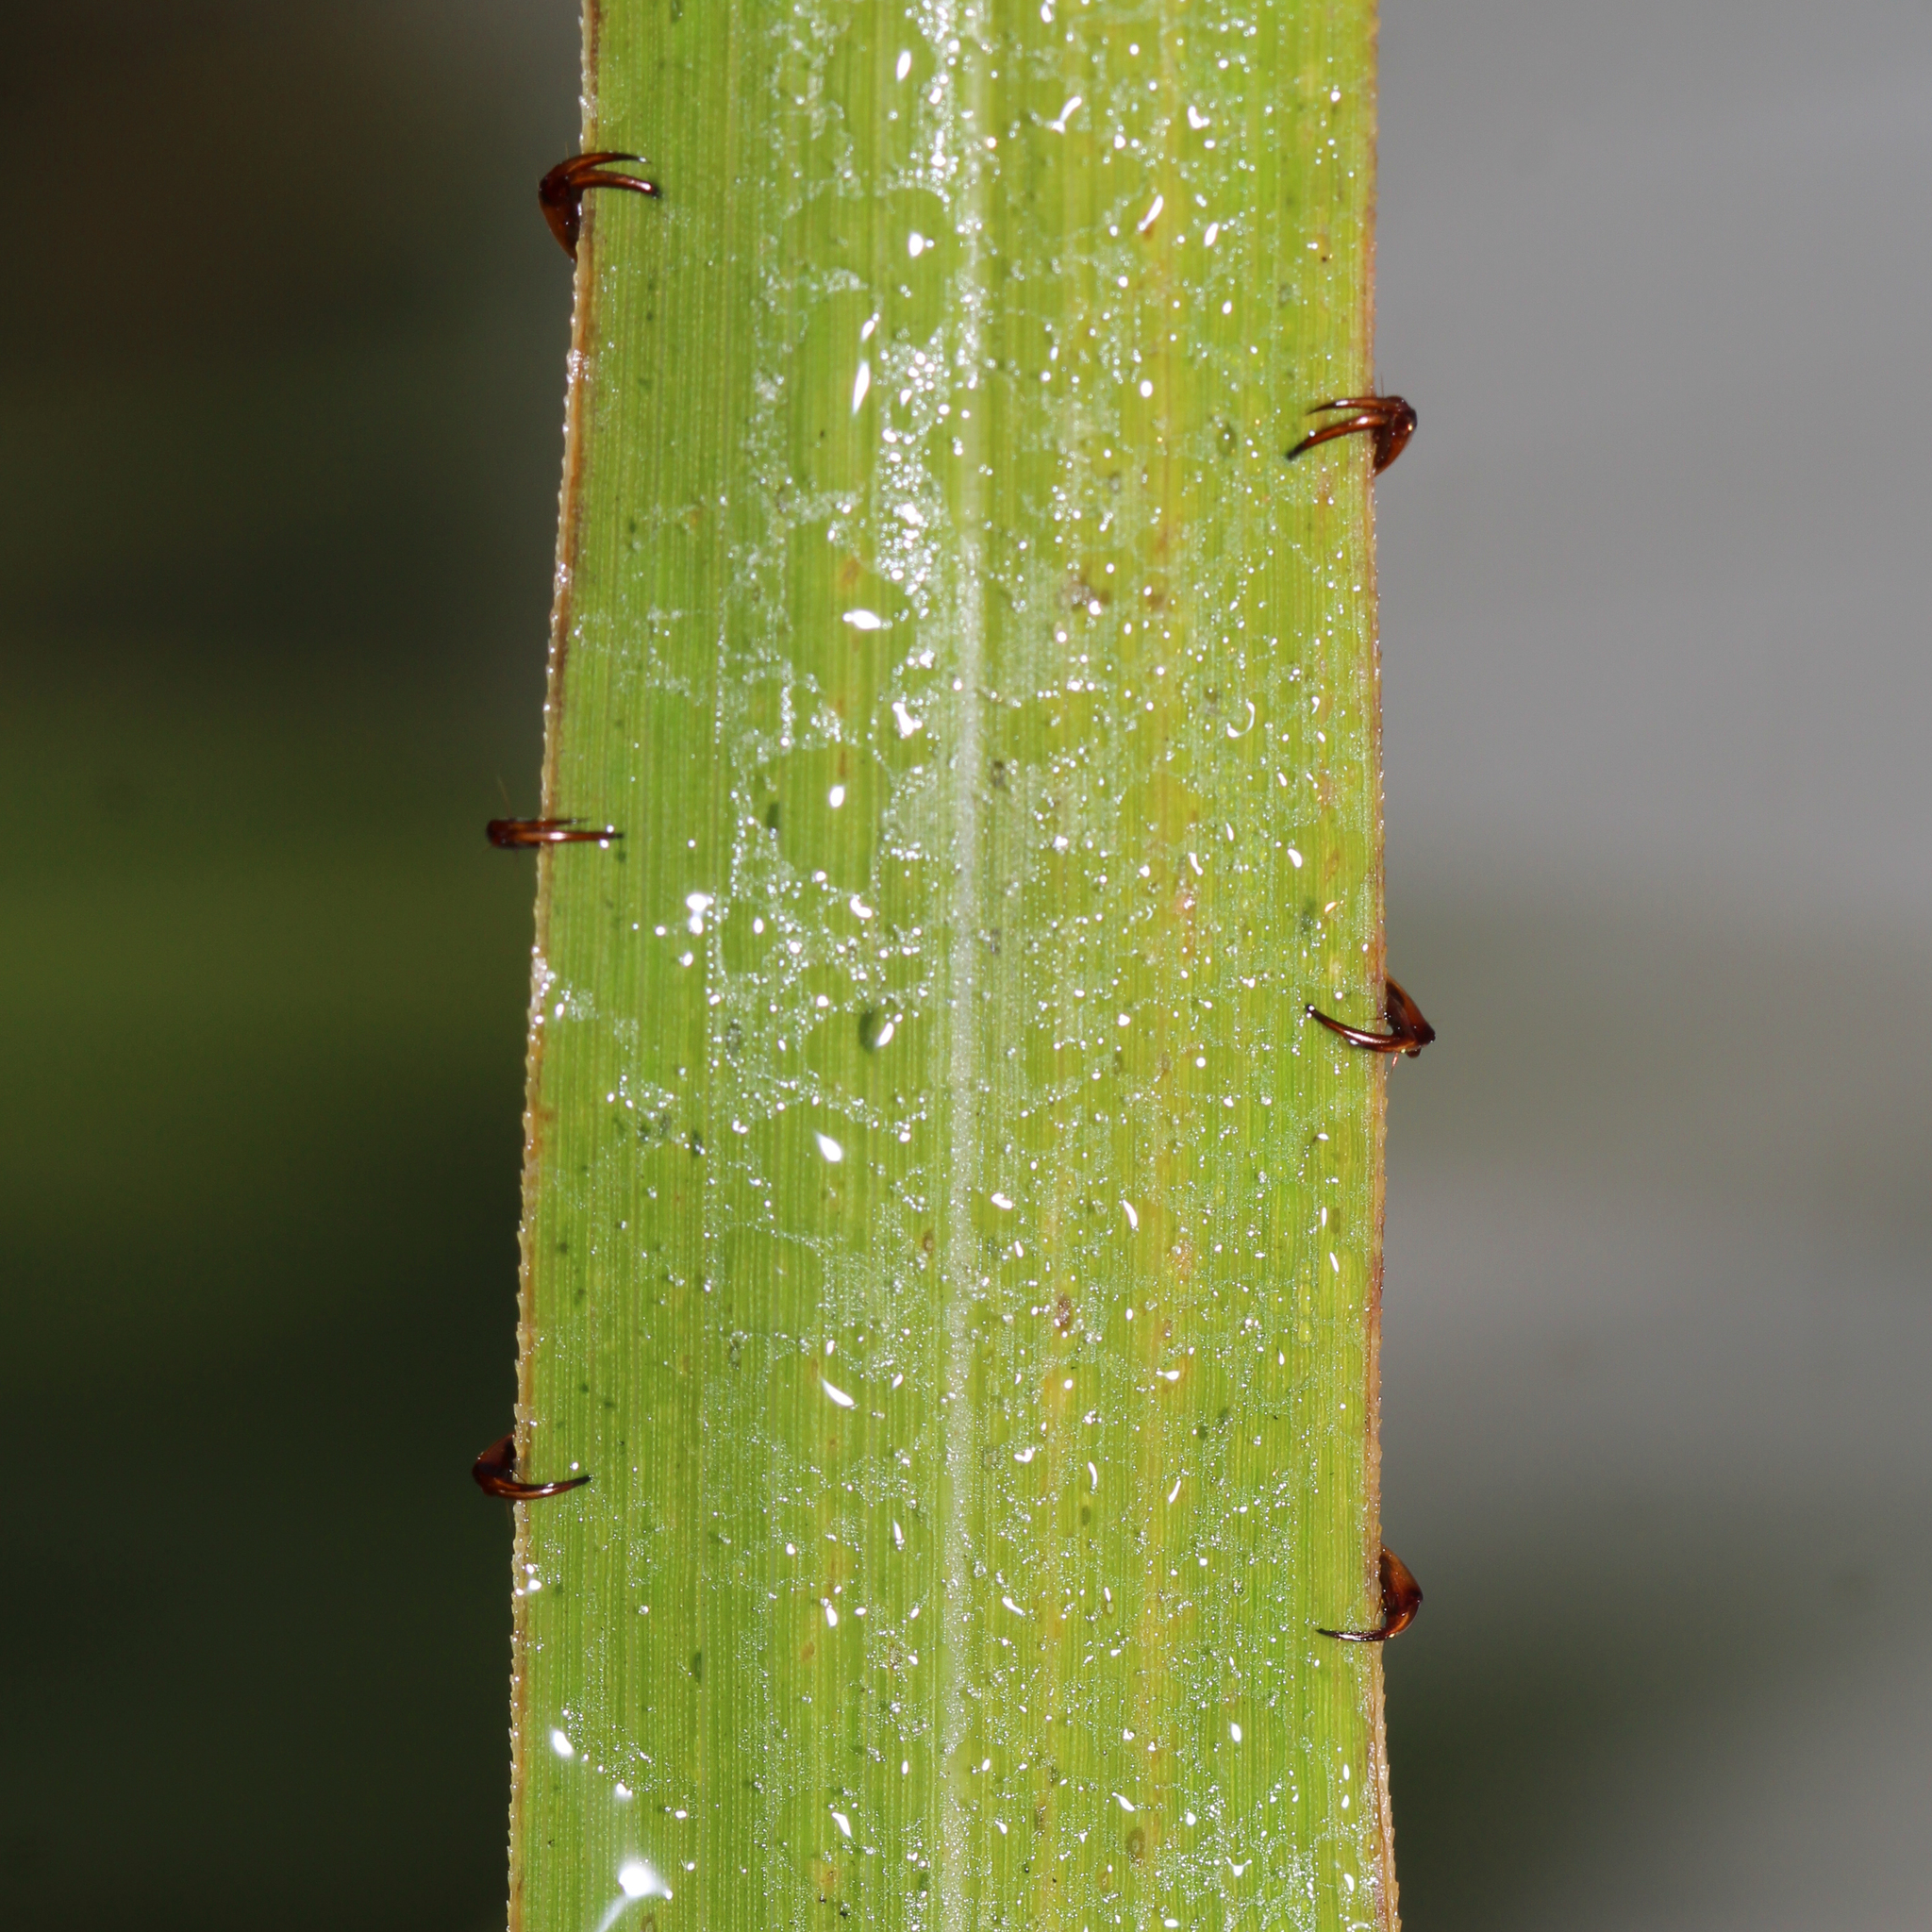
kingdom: Animalia
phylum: Arthropoda
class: Insecta
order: Coleoptera
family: Scarabaeidae
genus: Pelidnota
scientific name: Pelidnota punctata
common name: Grapevine beetle
